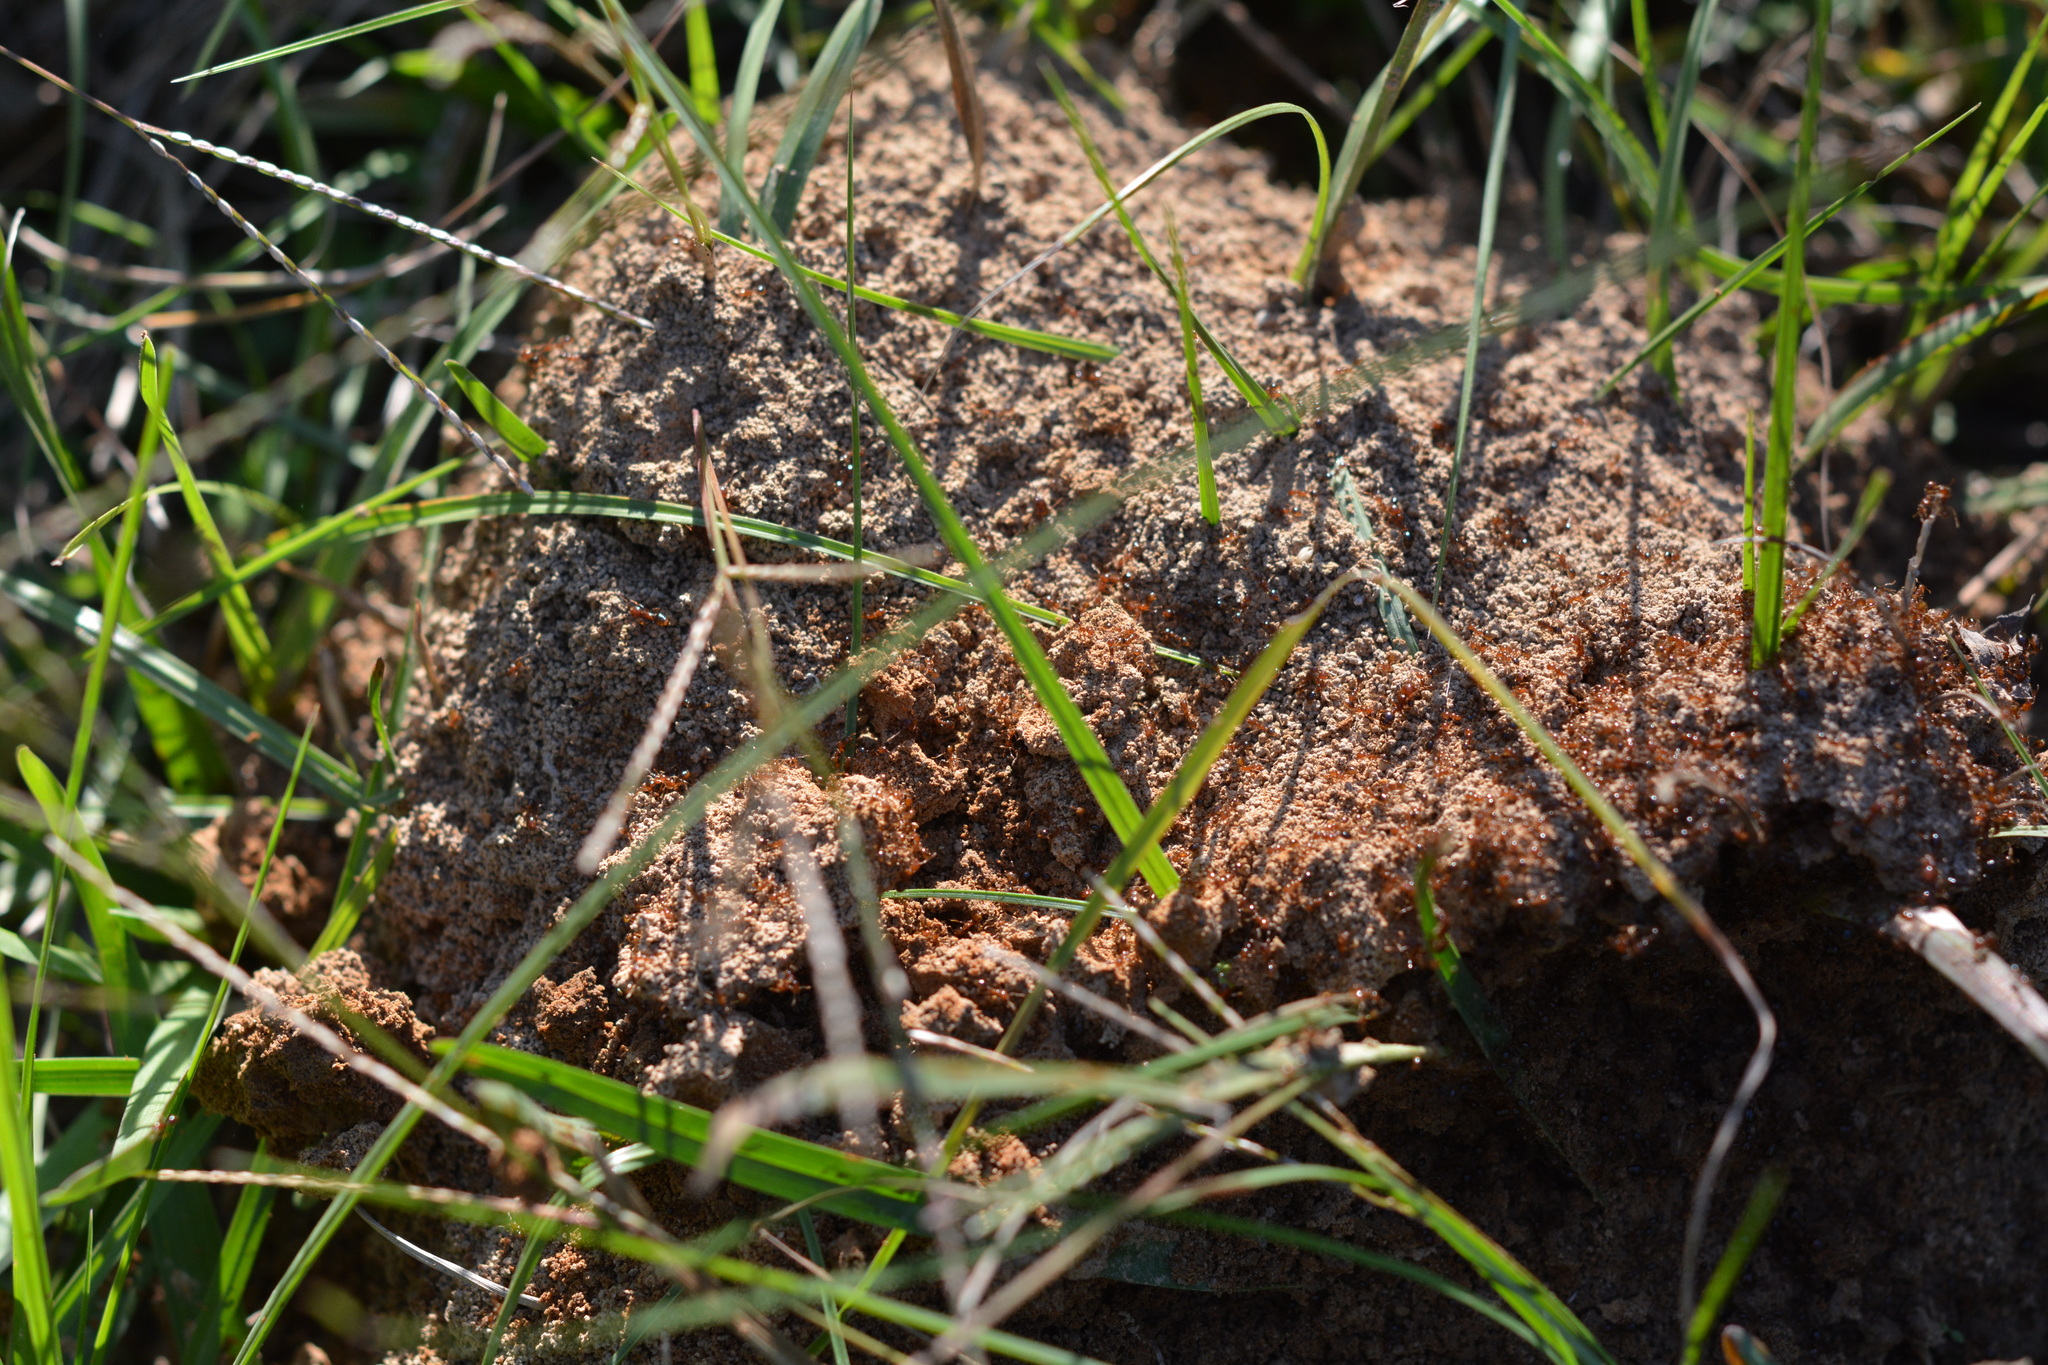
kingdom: Animalia
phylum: Arthropoda
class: Insecta
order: Hymenoptera
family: Formicidae
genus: Solenopsis
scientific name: Solenopsis invicta
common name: Red imported fire ant
